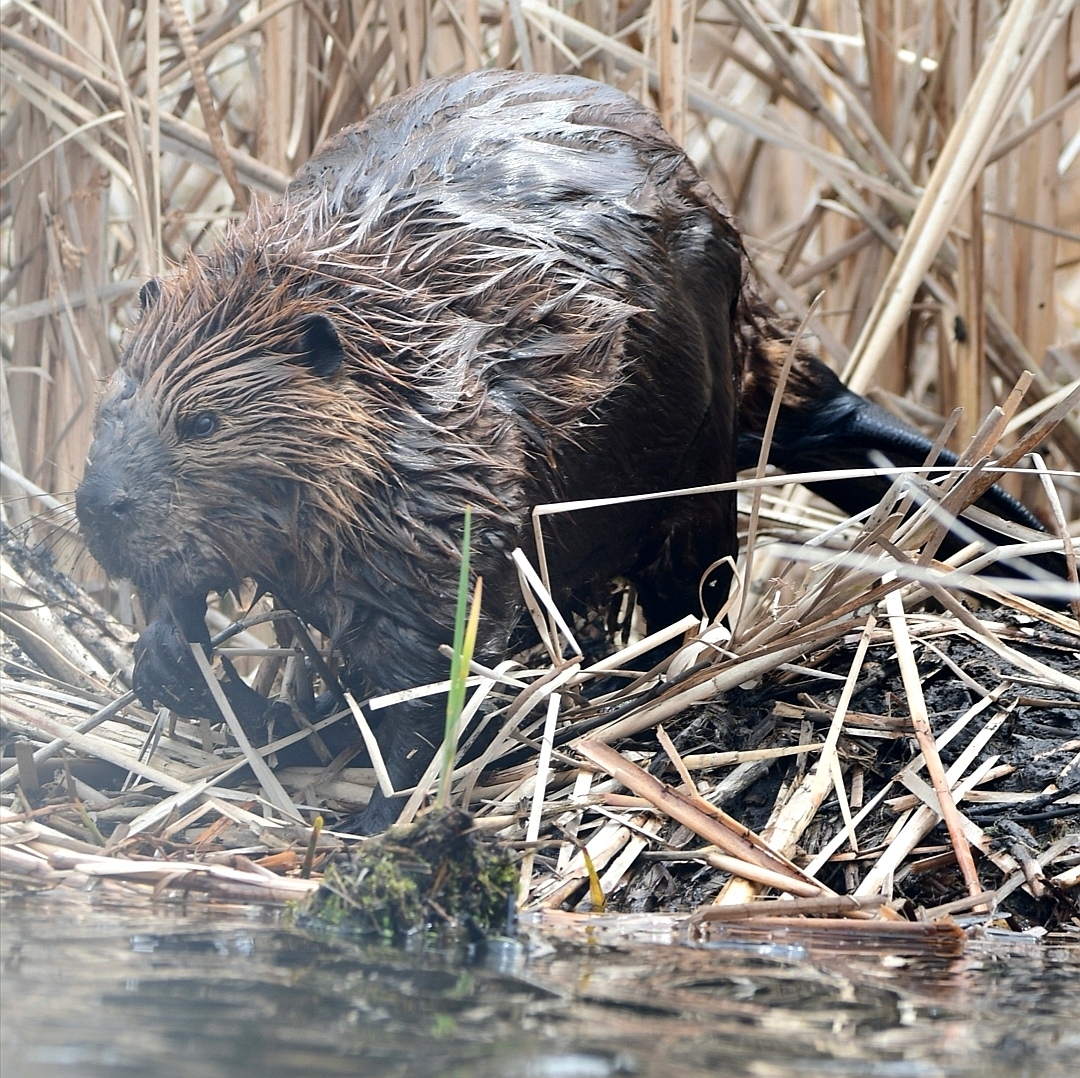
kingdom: Animalia
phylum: Chordata
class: Mammalia
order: Rodentia
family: Castoridae
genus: Castor
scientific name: Castor canadensis
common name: American beaver
